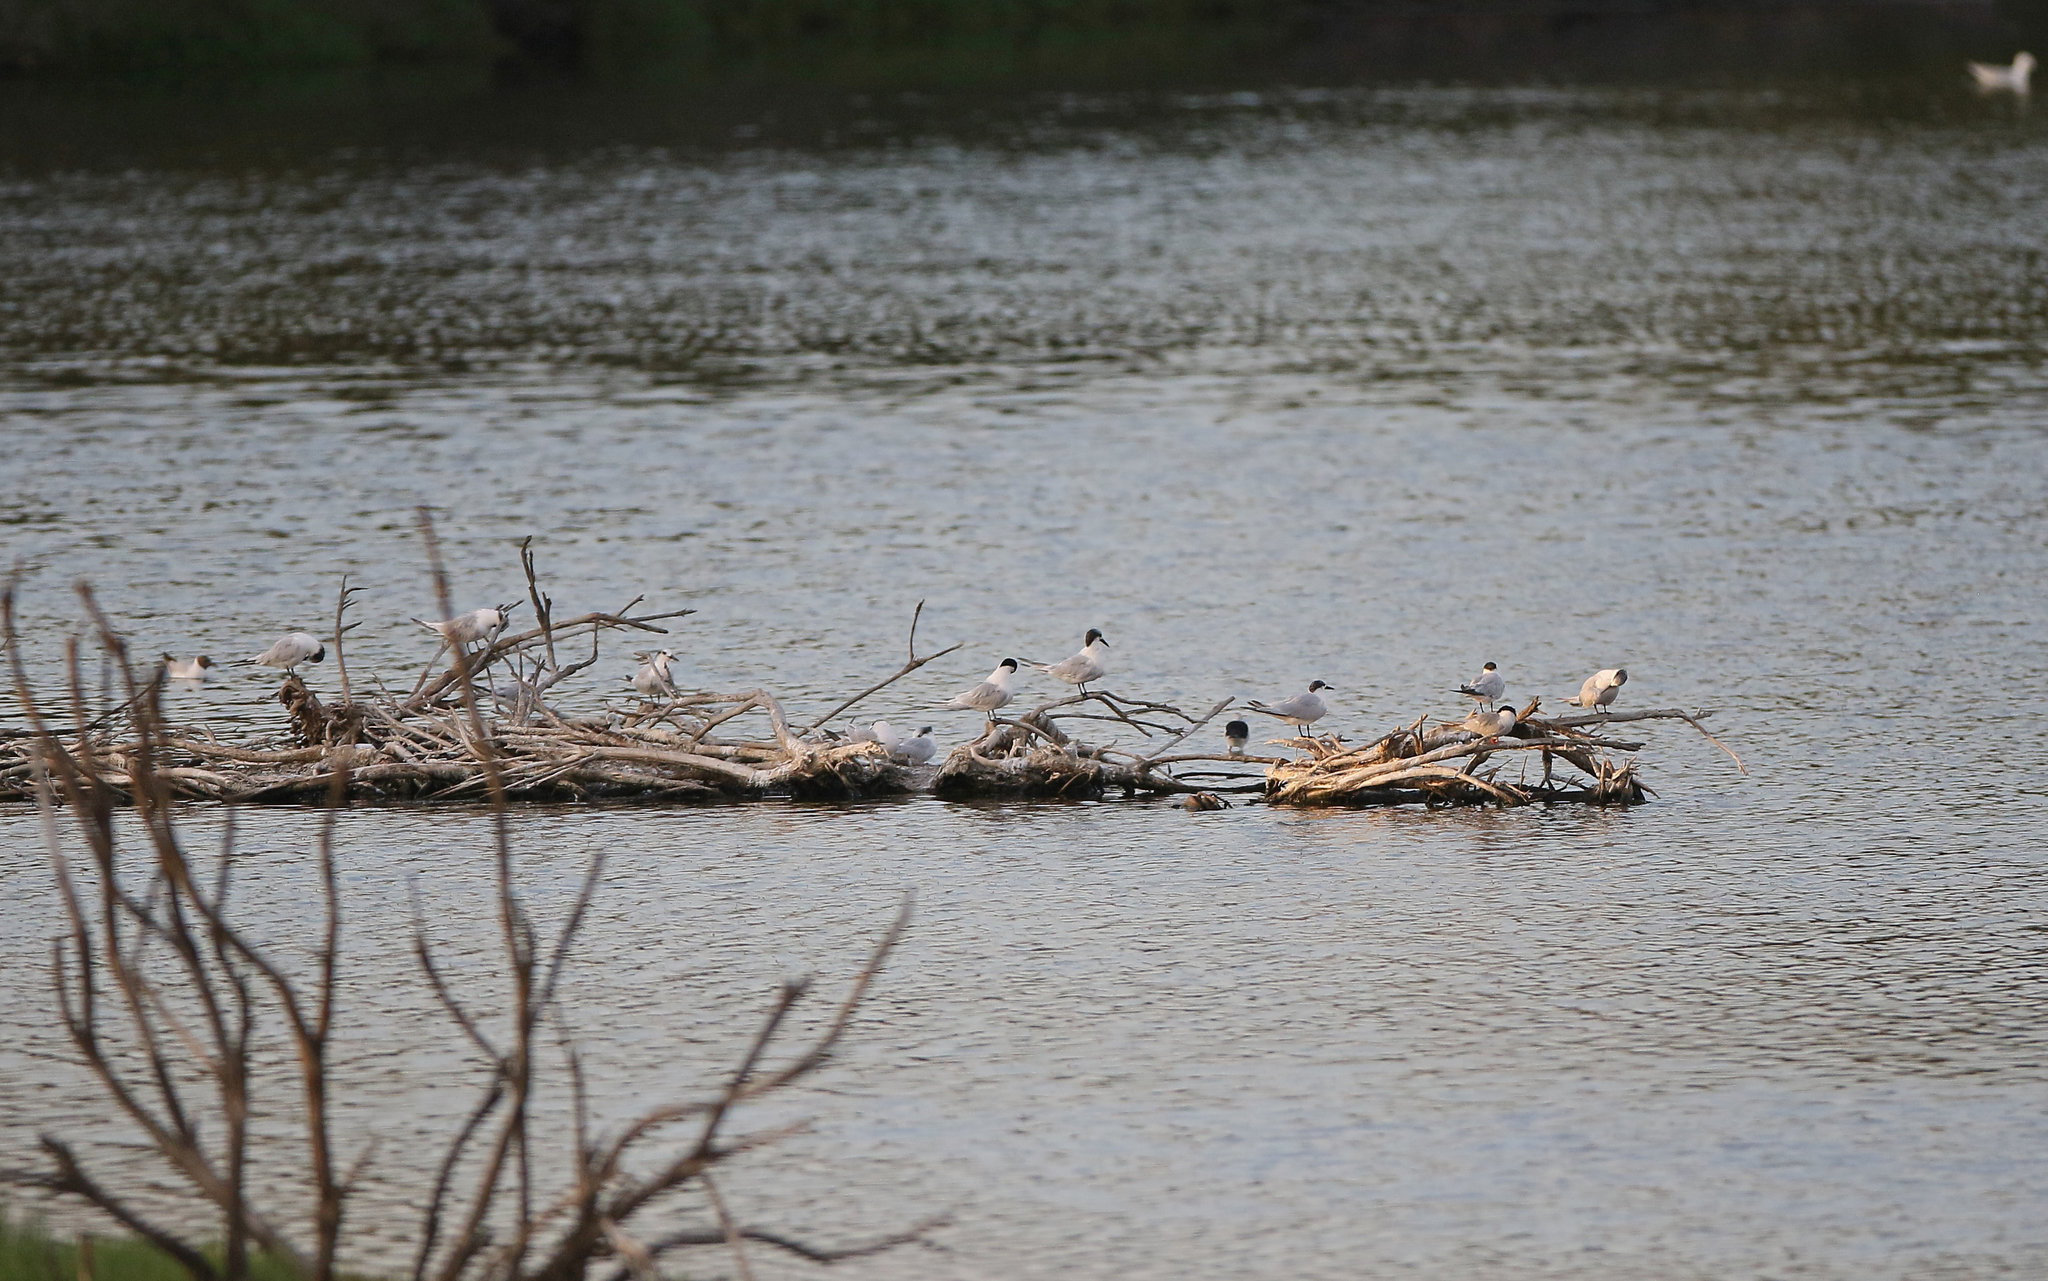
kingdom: Animalia
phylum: Chordata
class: Aves
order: Charadriiformes
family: Laridae
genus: Thalasseus
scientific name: Thalasseus sandvicensis
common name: Sandwich tern
